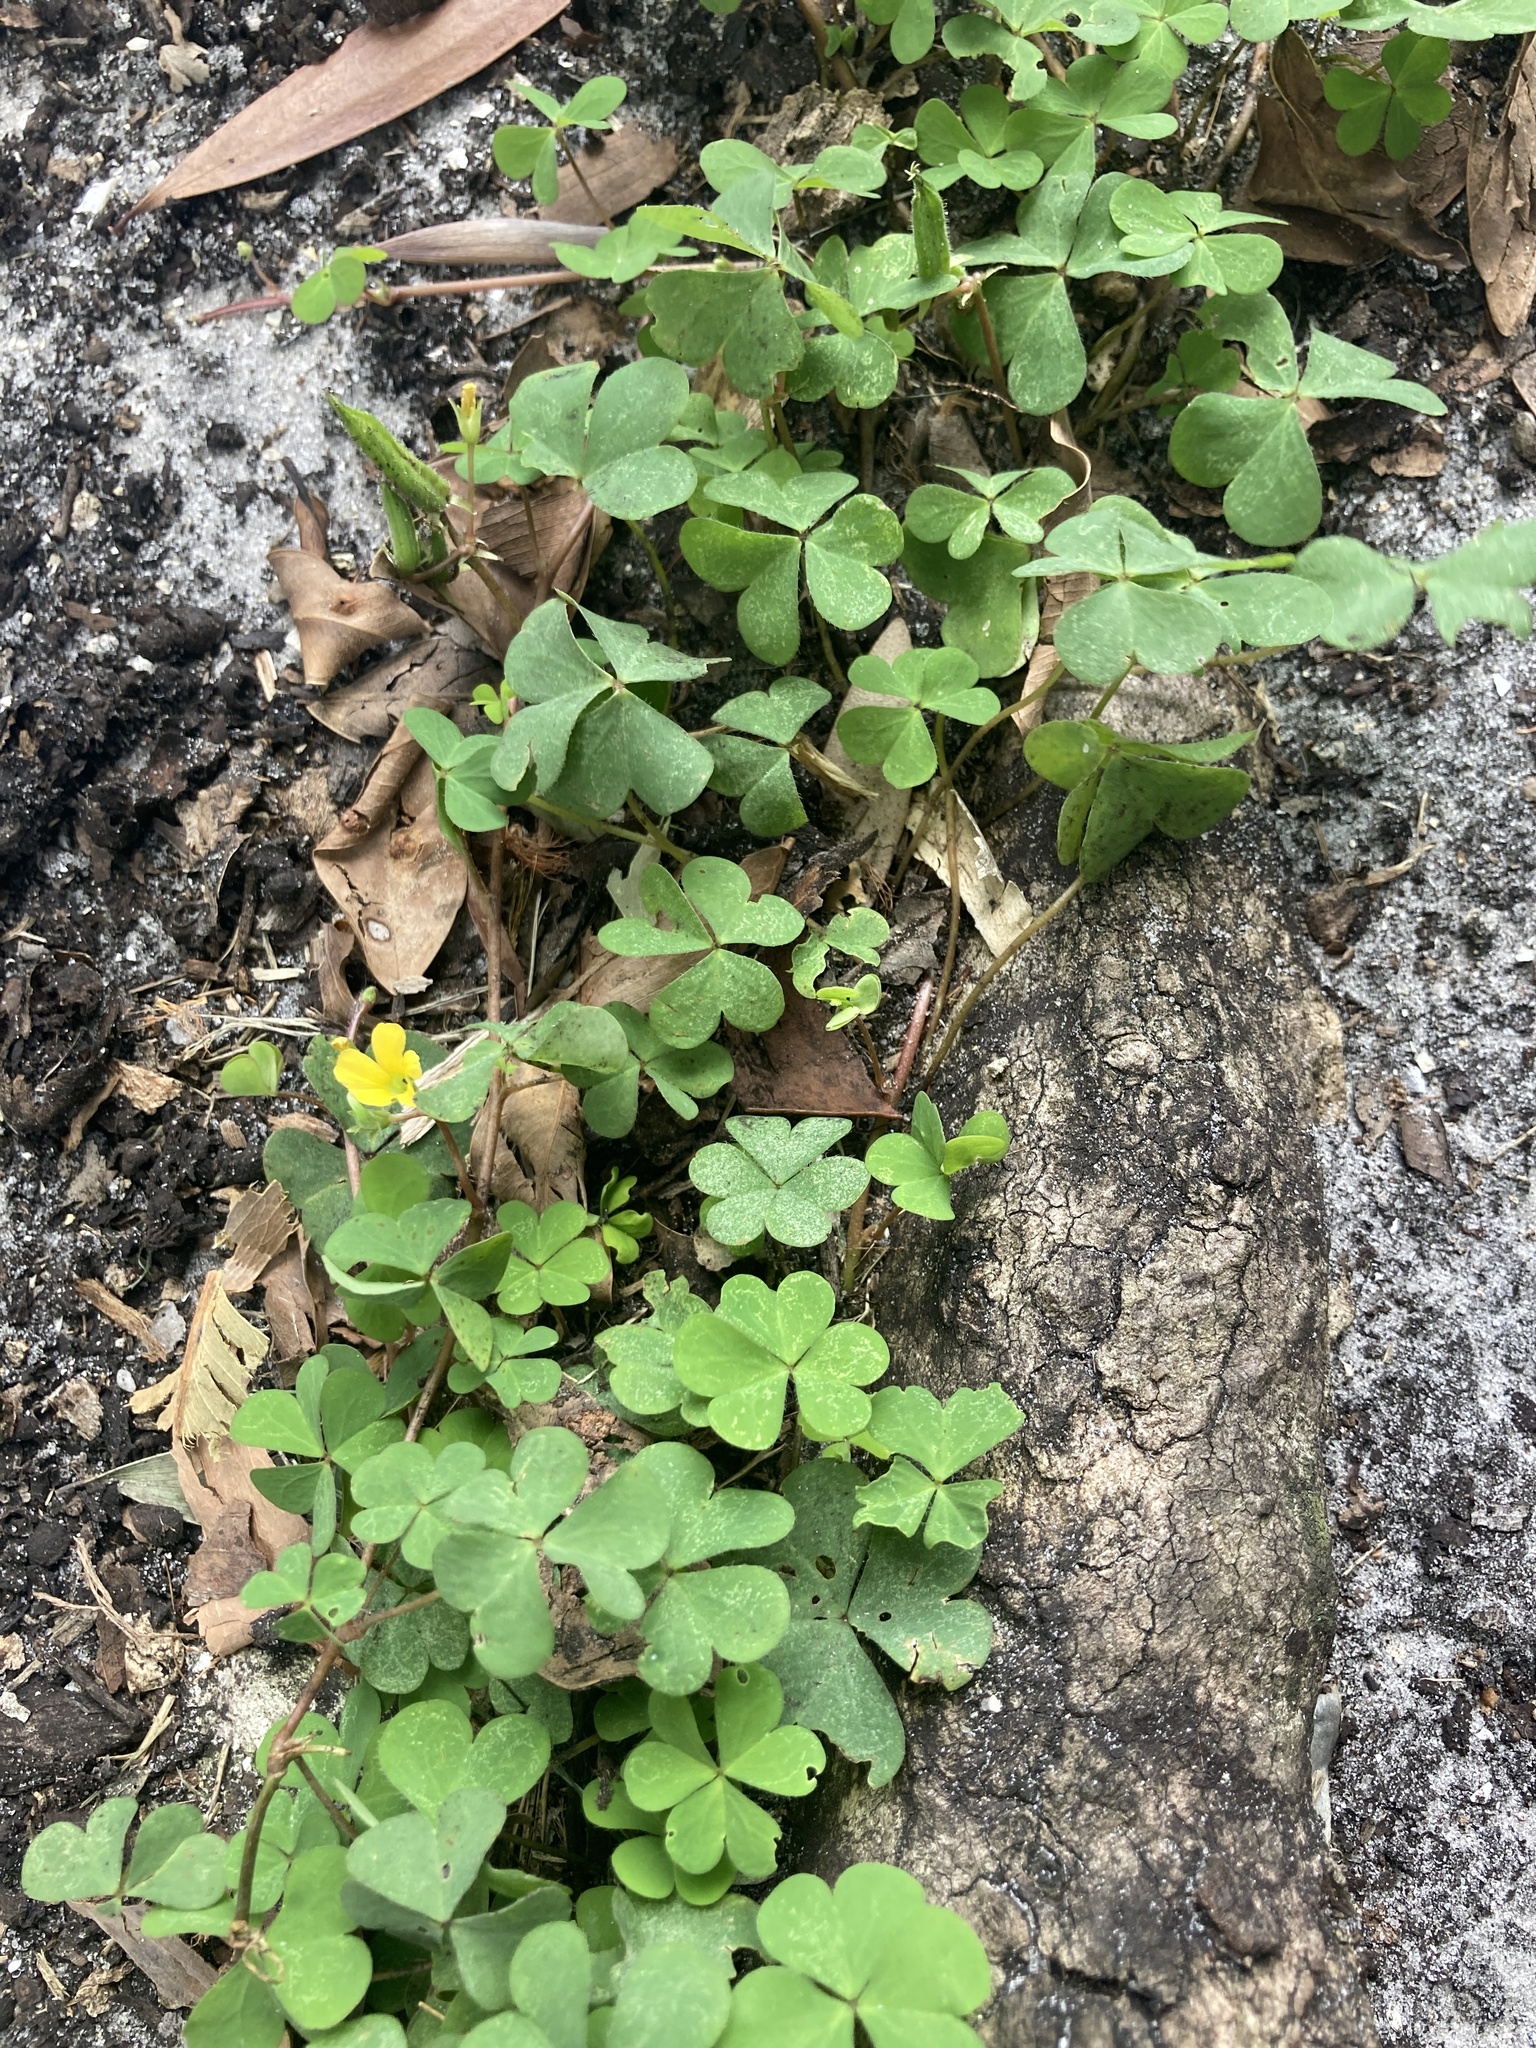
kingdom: Plantae
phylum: Tracheophyta
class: Magnoliopsida
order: Oxalidales
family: Oxalidaceae
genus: Oxalis
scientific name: Oxalis corniculata
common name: Procumbent yellow-sorrel
